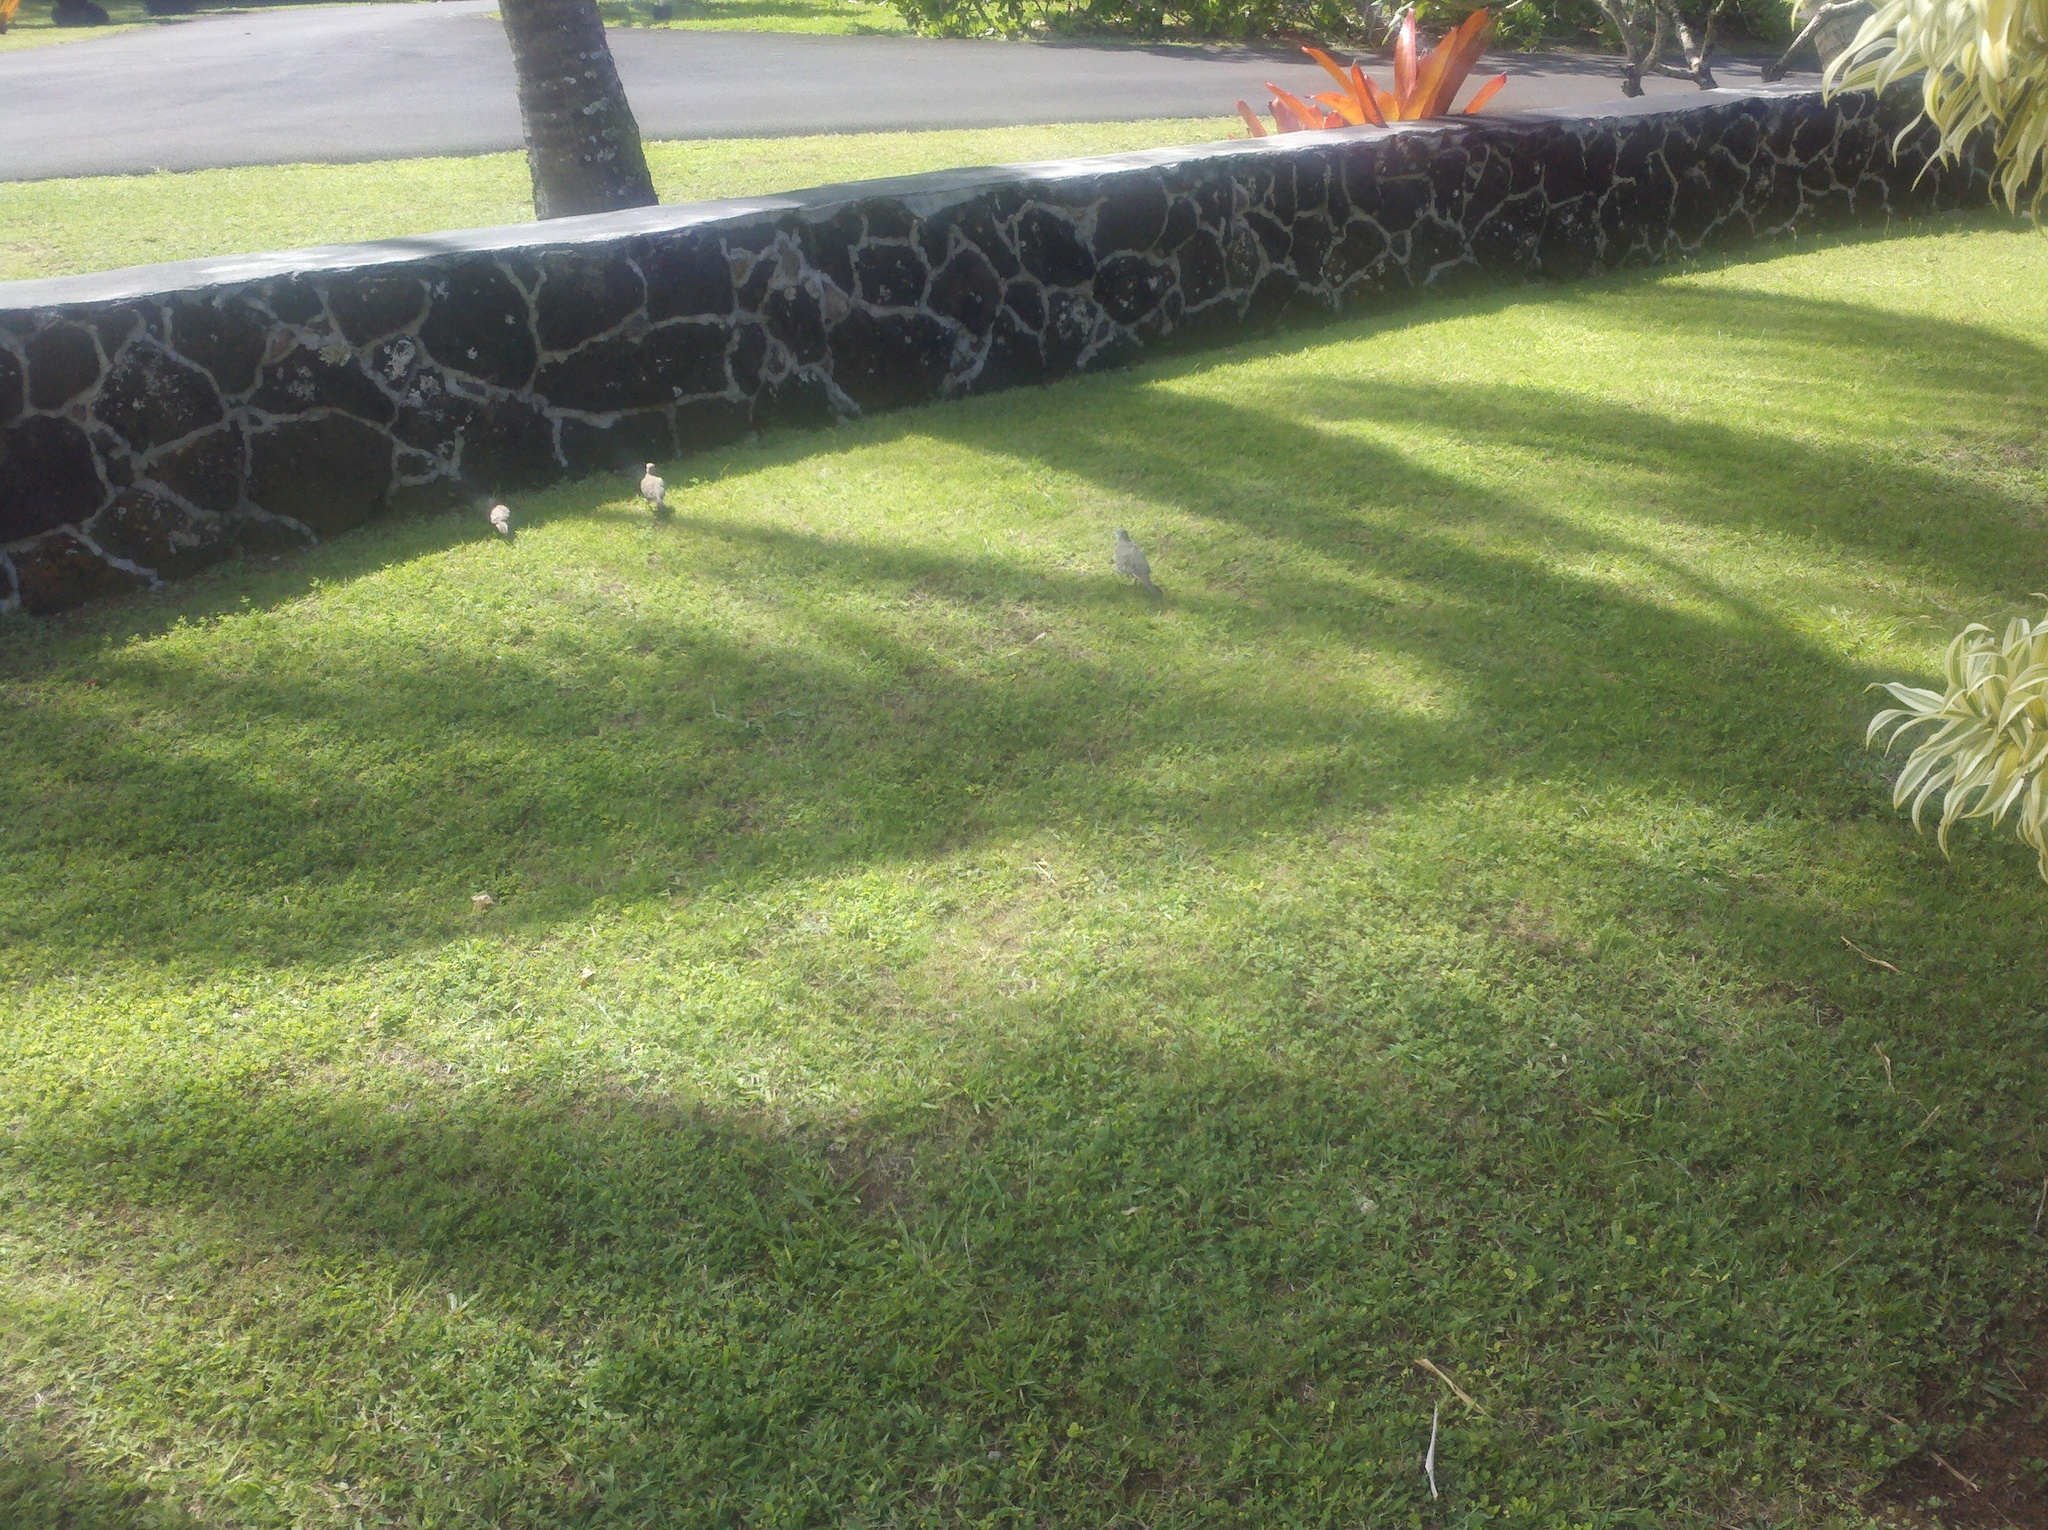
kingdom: Animalia
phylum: Chordata
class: Aves
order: Columbiformes
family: Columbidae
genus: Geopelia
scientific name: Geopelia striata
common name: Zebra dove
